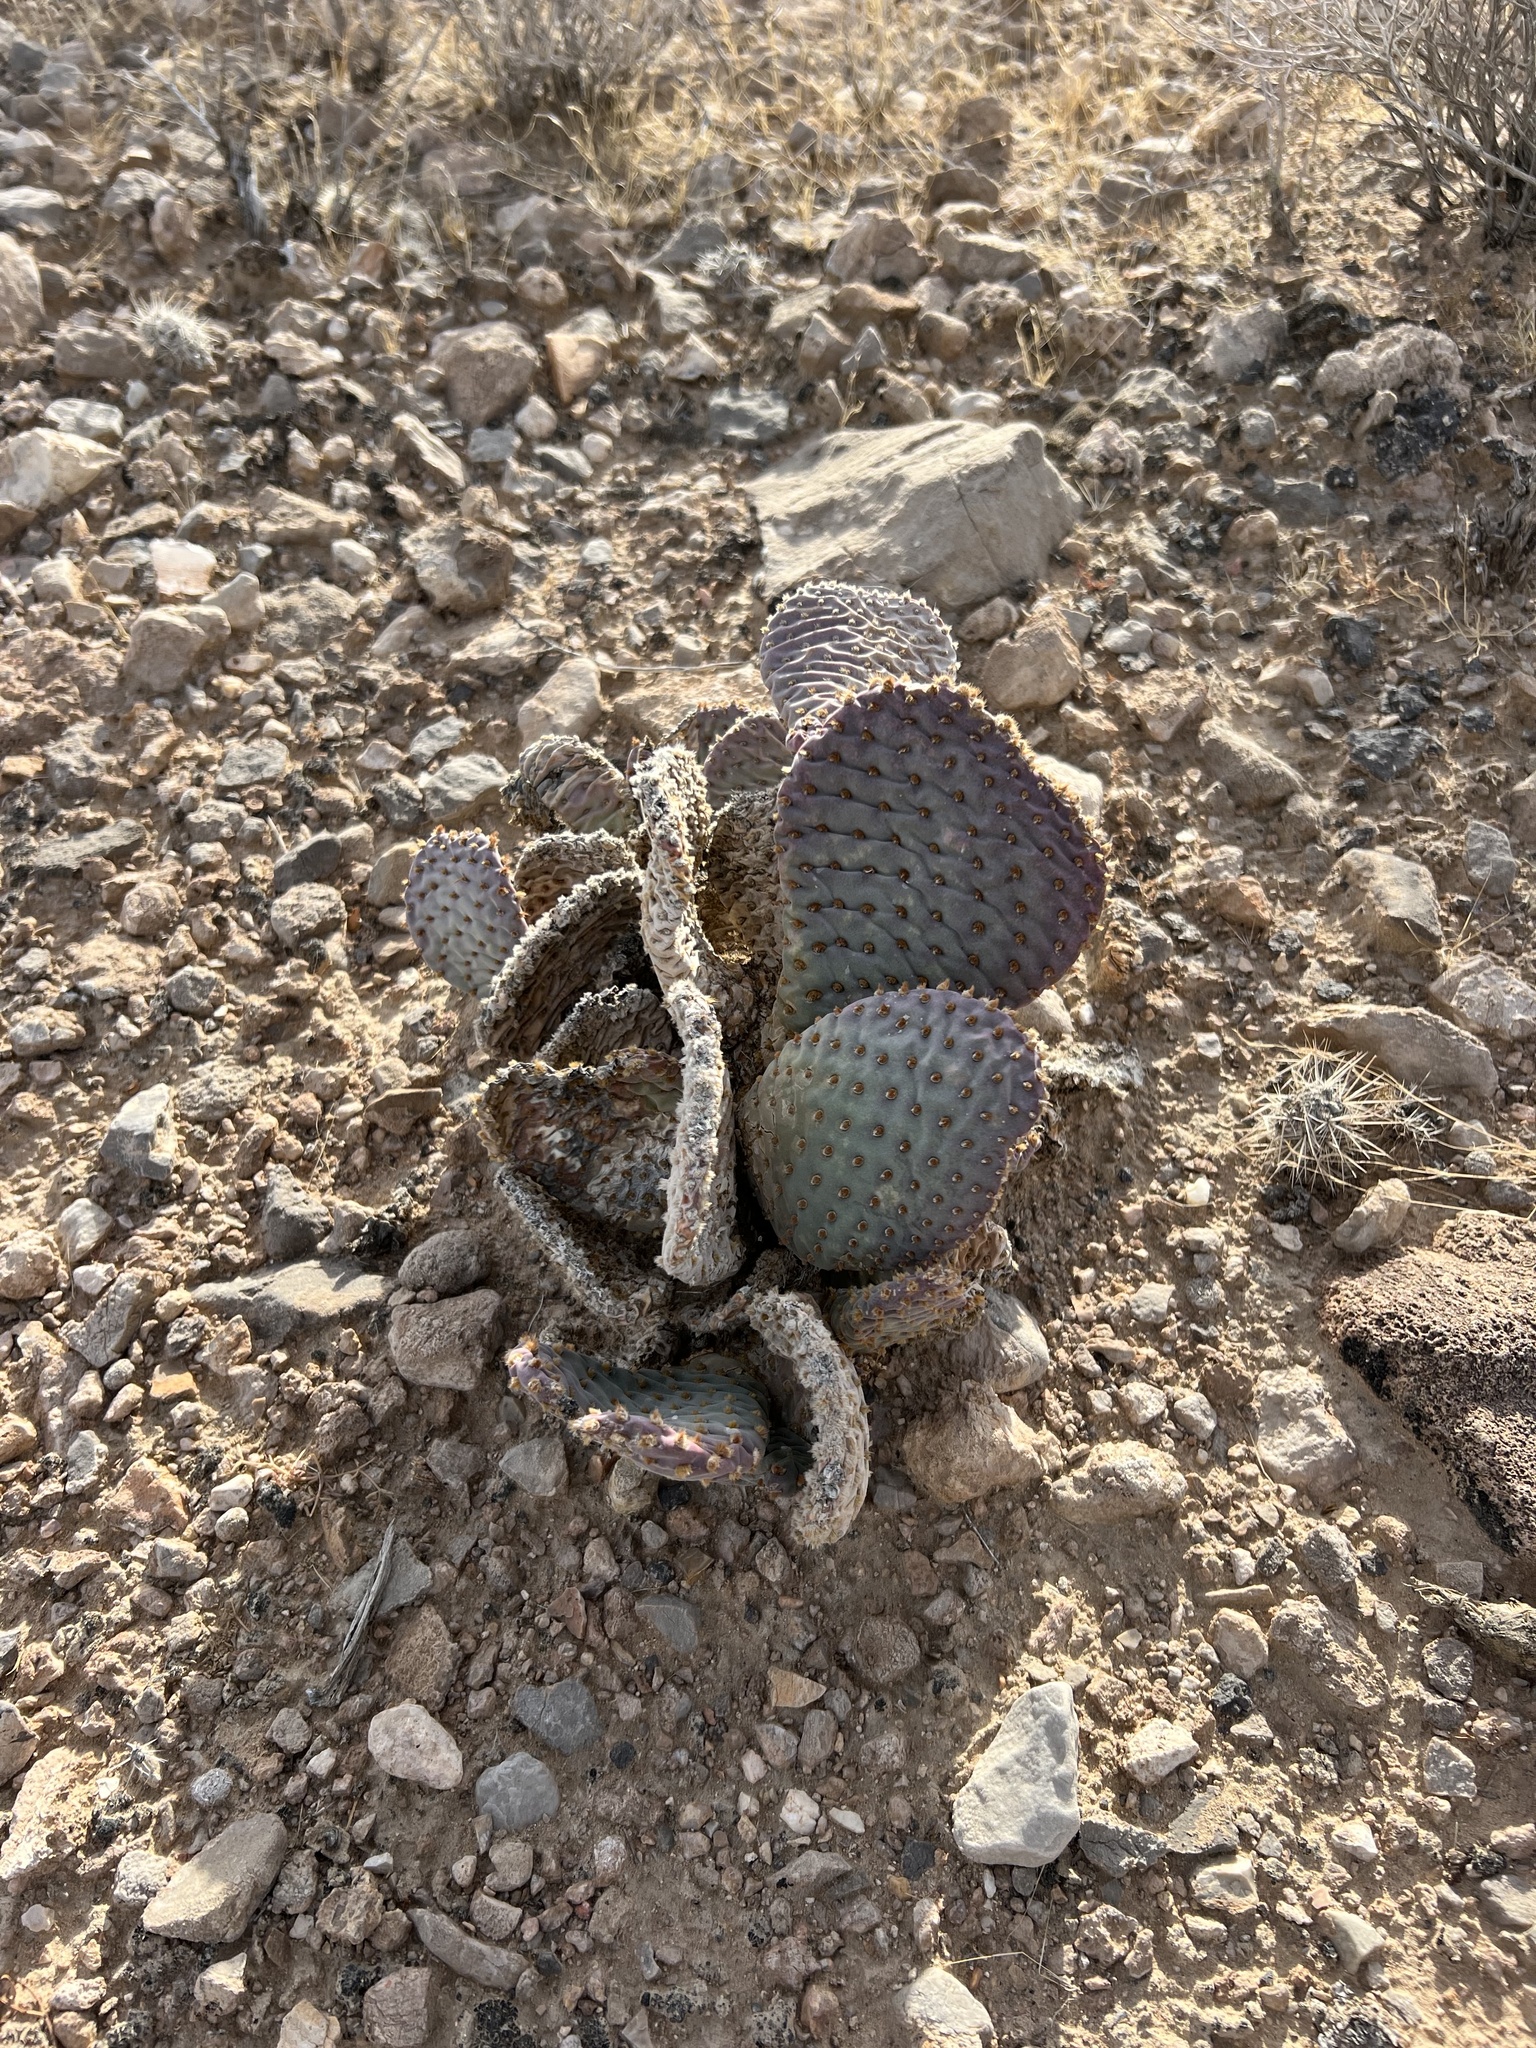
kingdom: Plantae
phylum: Tracheophyta
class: Magnoliopsida
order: Caryophyllales
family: Cactaceae
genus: Opuntia
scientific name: Opuntia basilaris
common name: Beavertail prickly-pear
